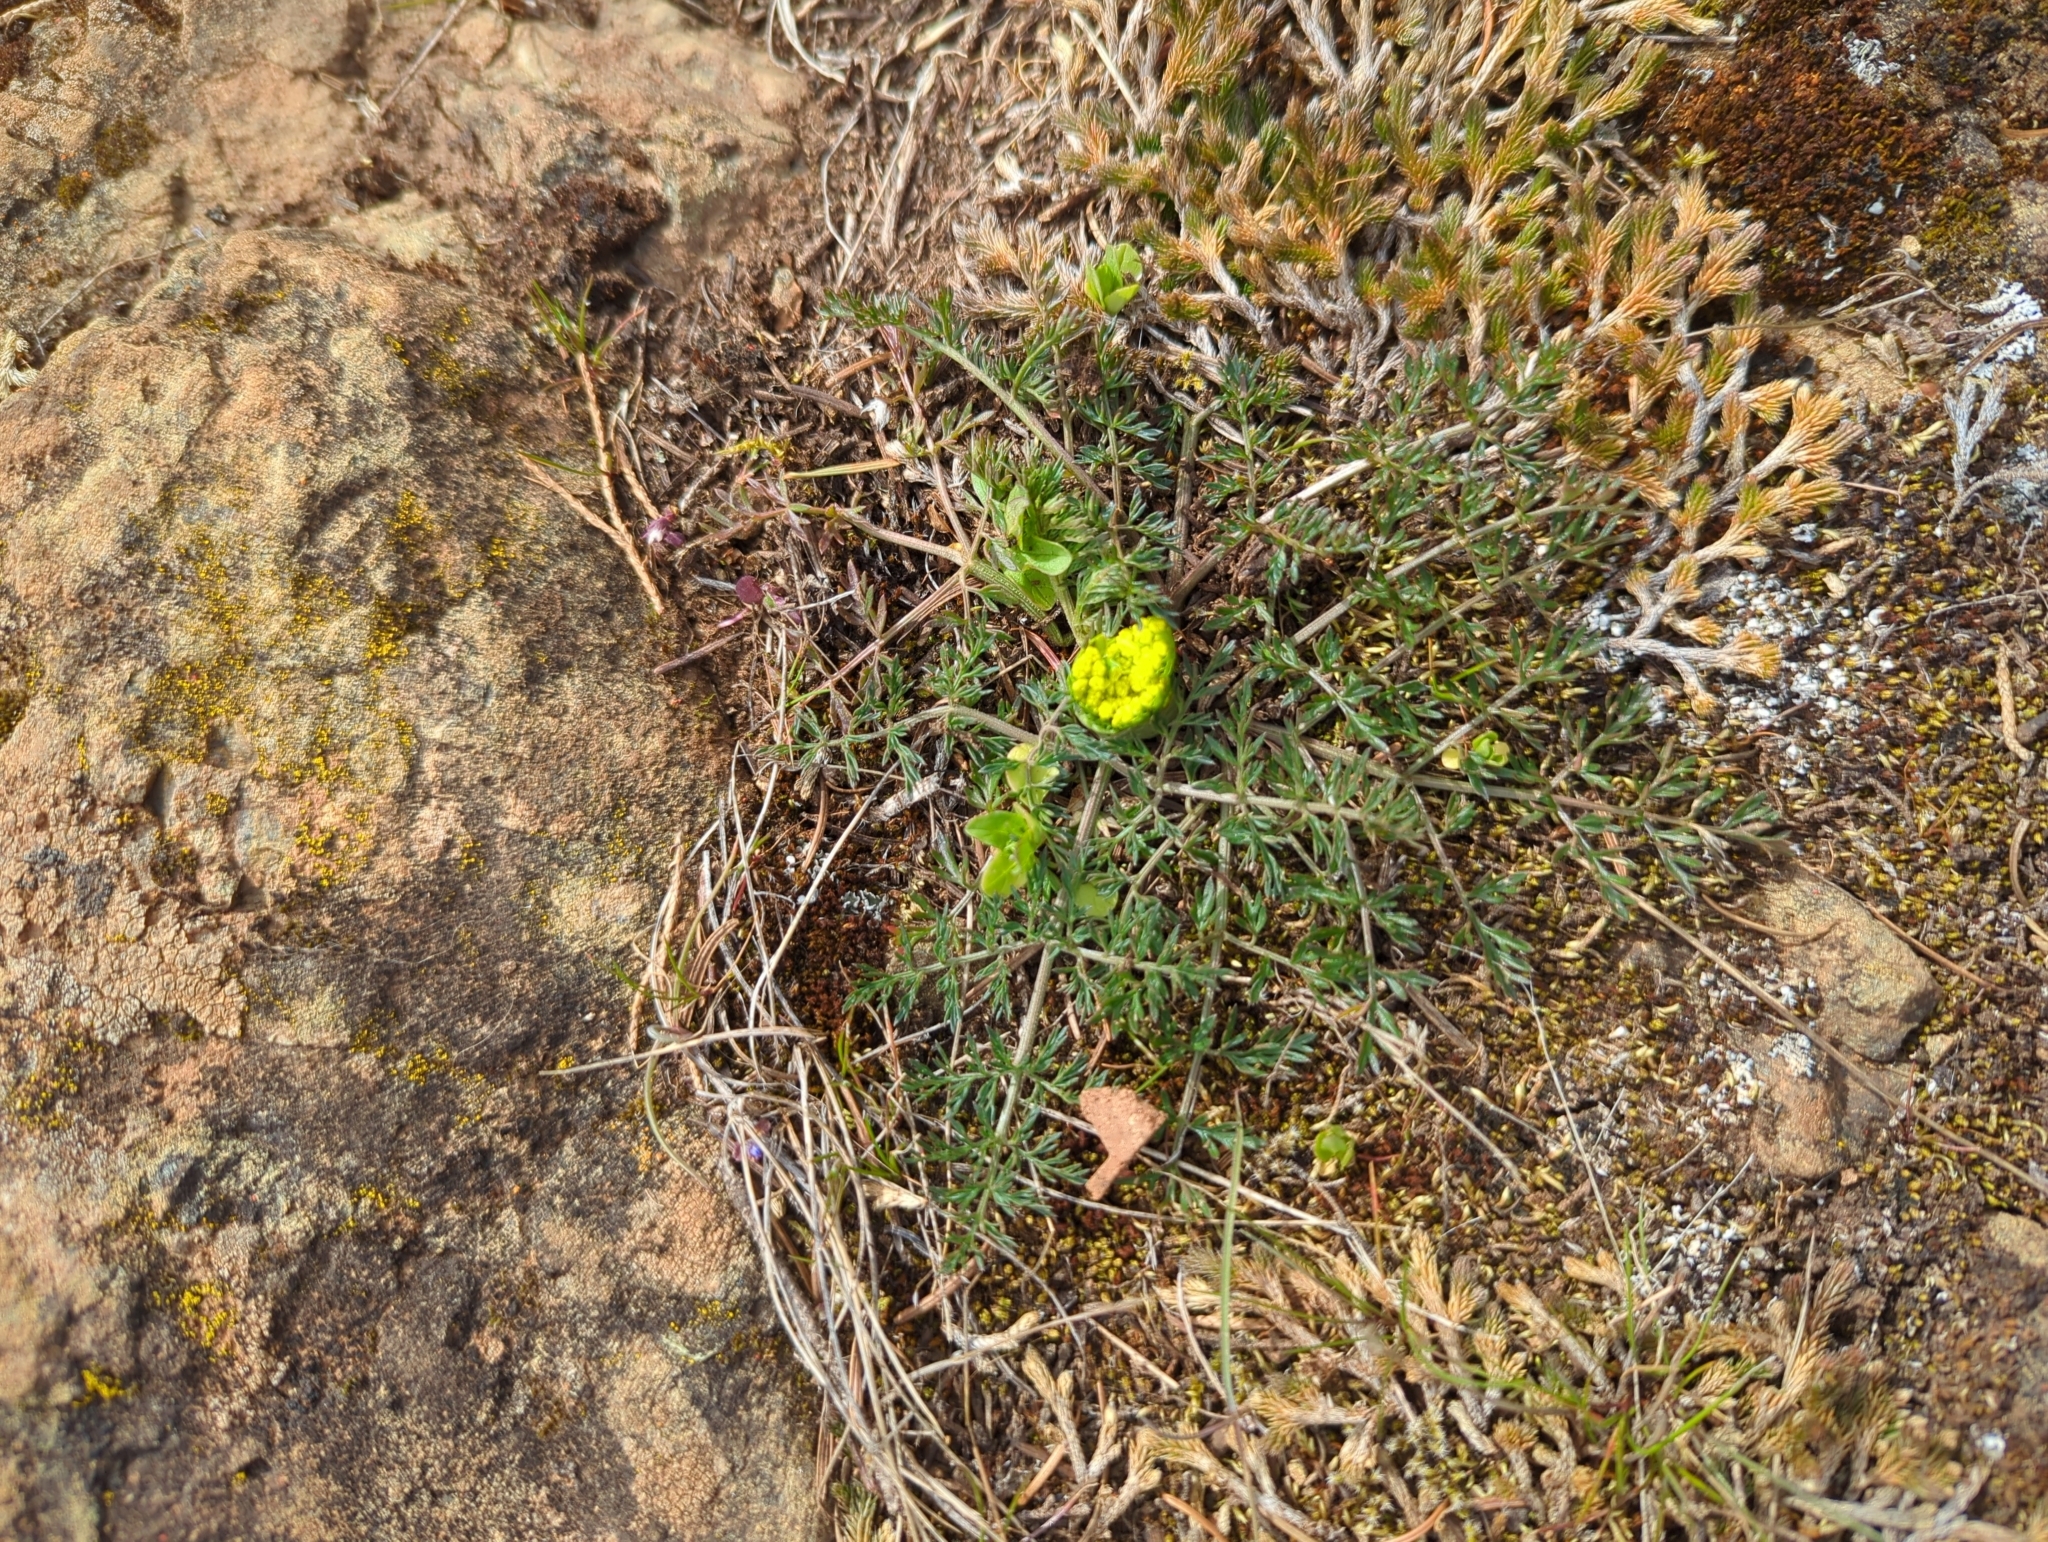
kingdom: Plantae
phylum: Tracheophyta
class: Magnoliopsida
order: Apiales
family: Apiaceae
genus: Lomatium
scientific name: Lomatium utriculatum
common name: Fine-leaf desert-parsley
